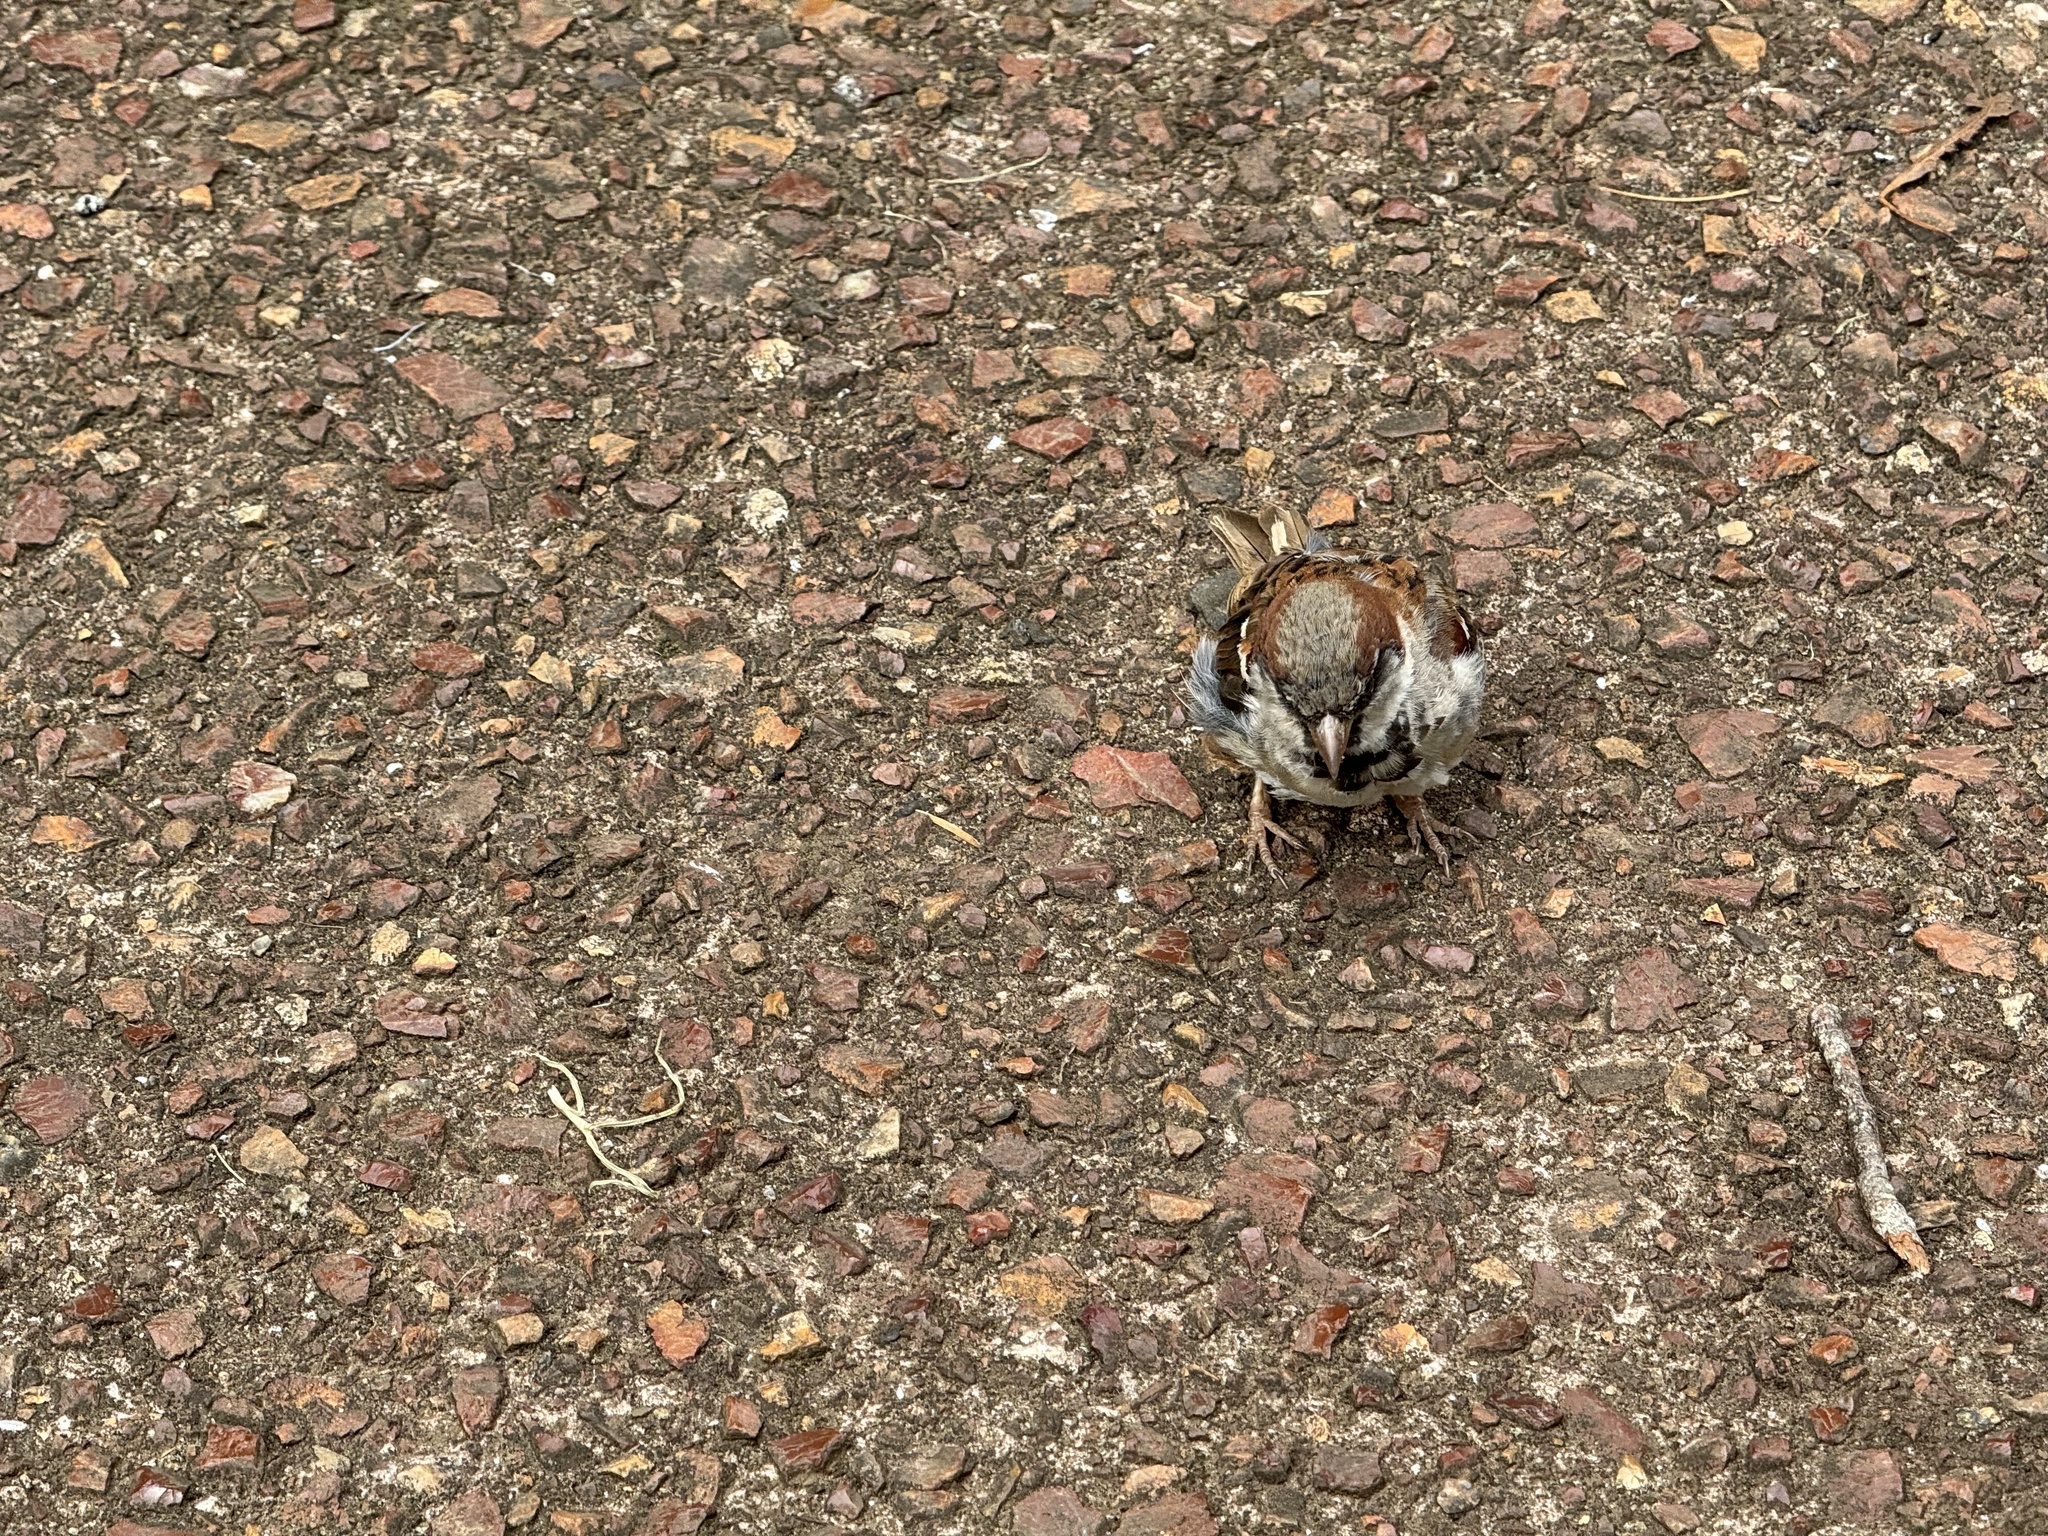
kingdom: Animalia
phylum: Chordata
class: Aves
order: Passeriformes
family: Passeridae
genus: Passer
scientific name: Passer domesticus
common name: House sparrow
